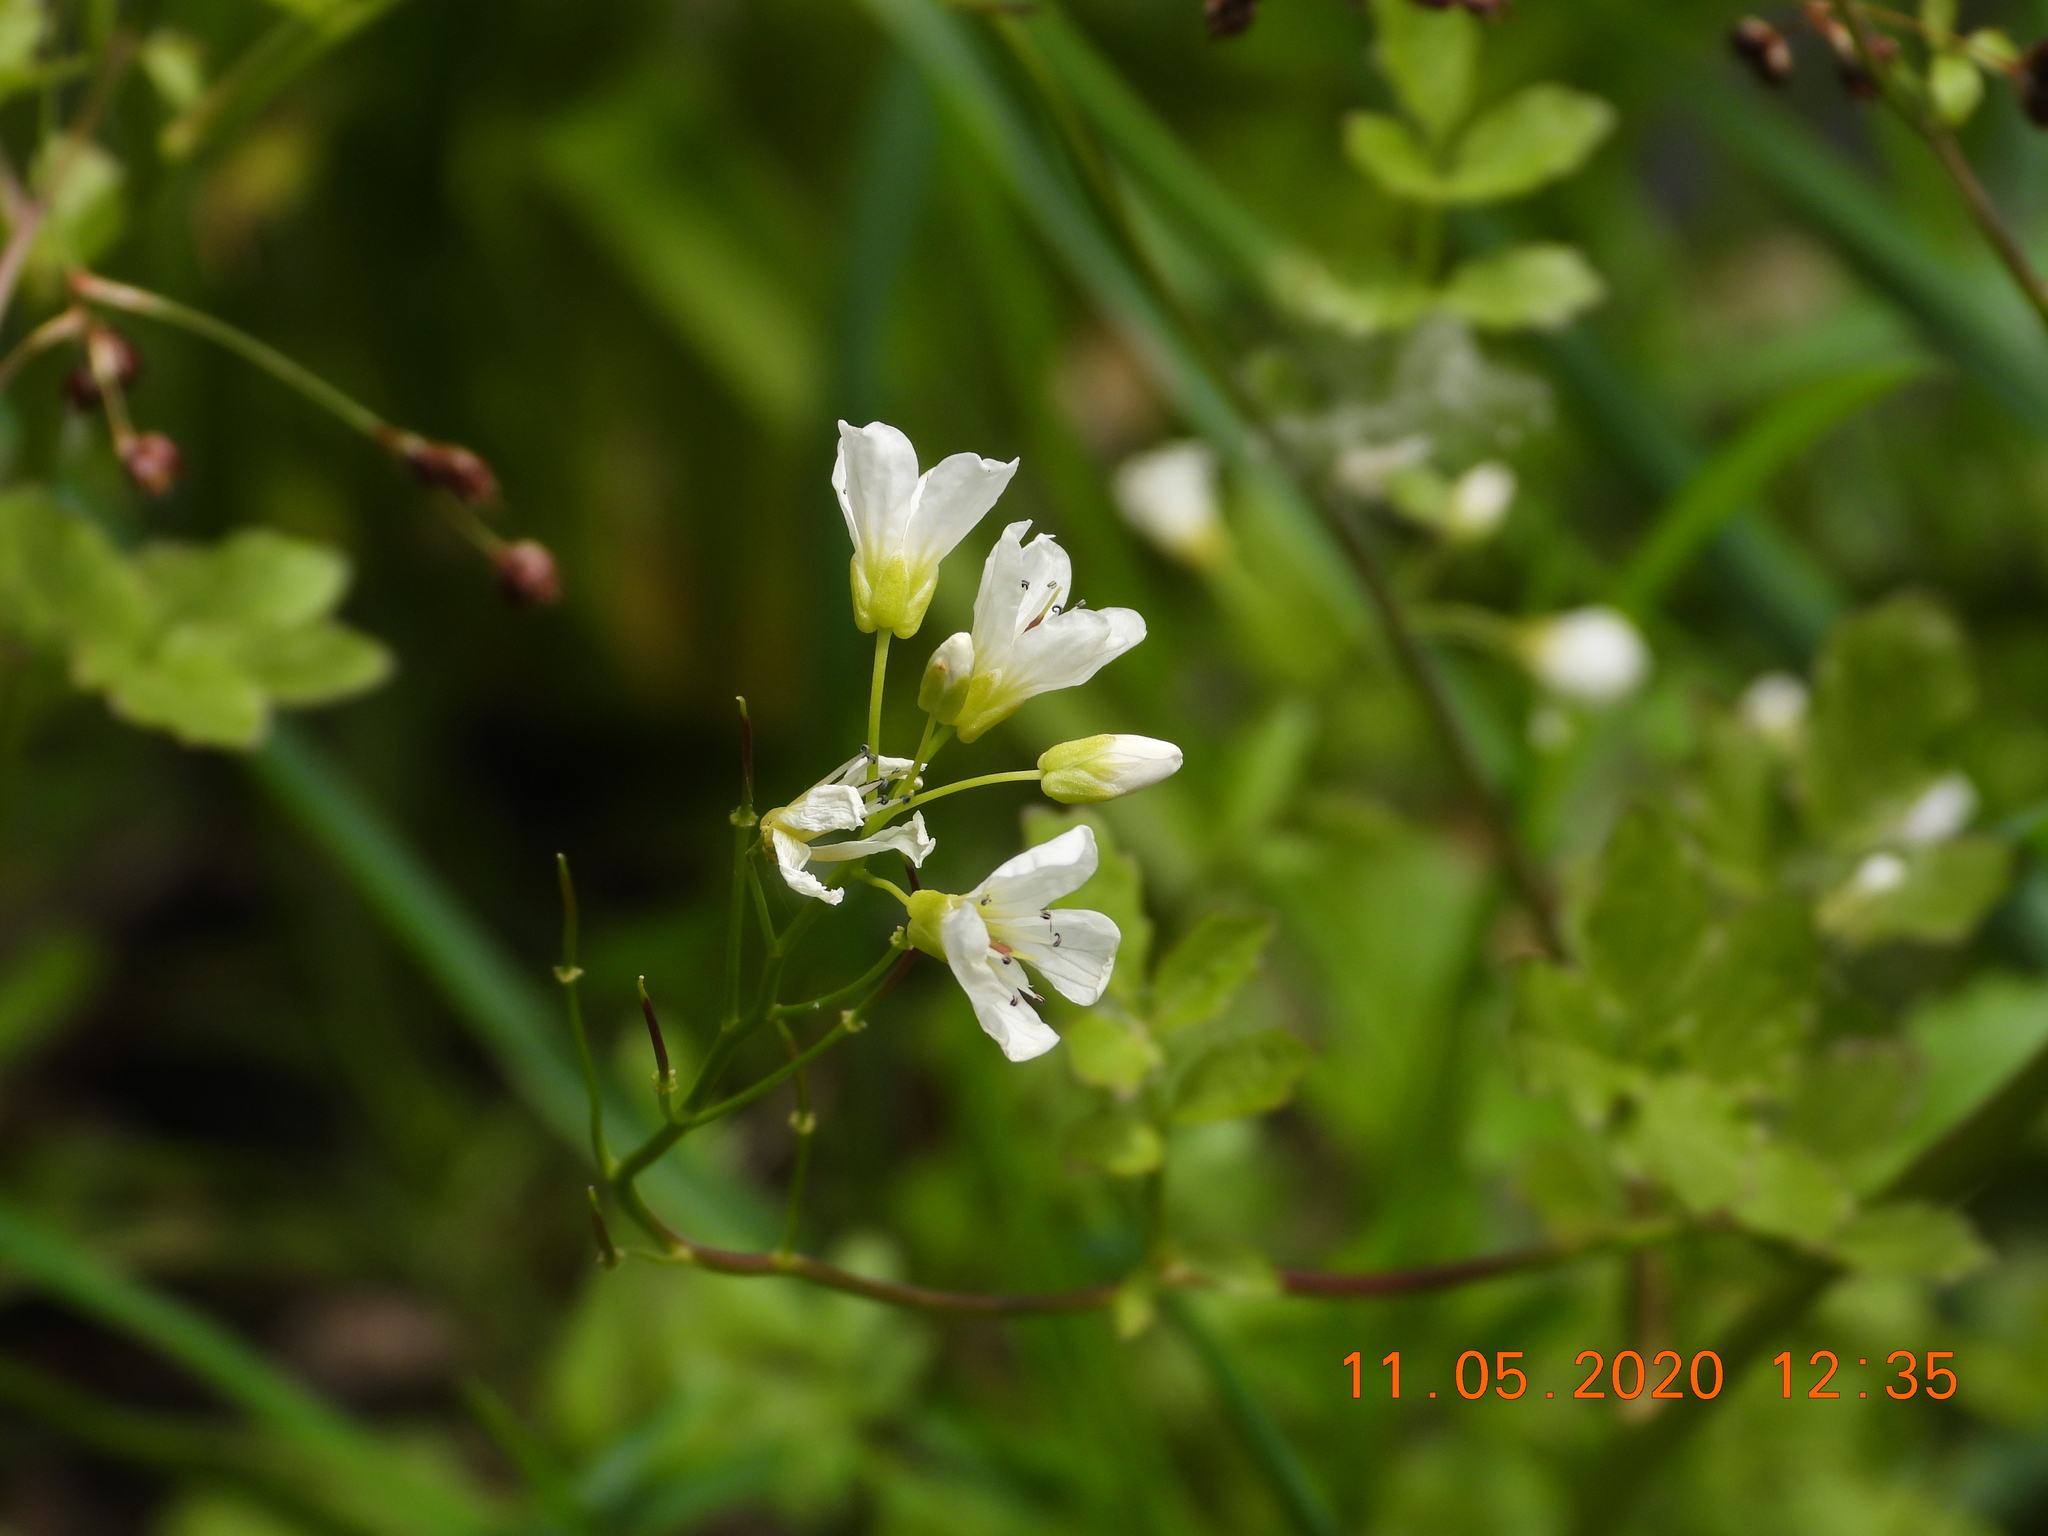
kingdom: Plantae
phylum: Tracheophyta
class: Magnoliopsida
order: Brassicales
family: Brassicaceae
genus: Cardamine
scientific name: Cardamine amara
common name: Large bitter-cress
